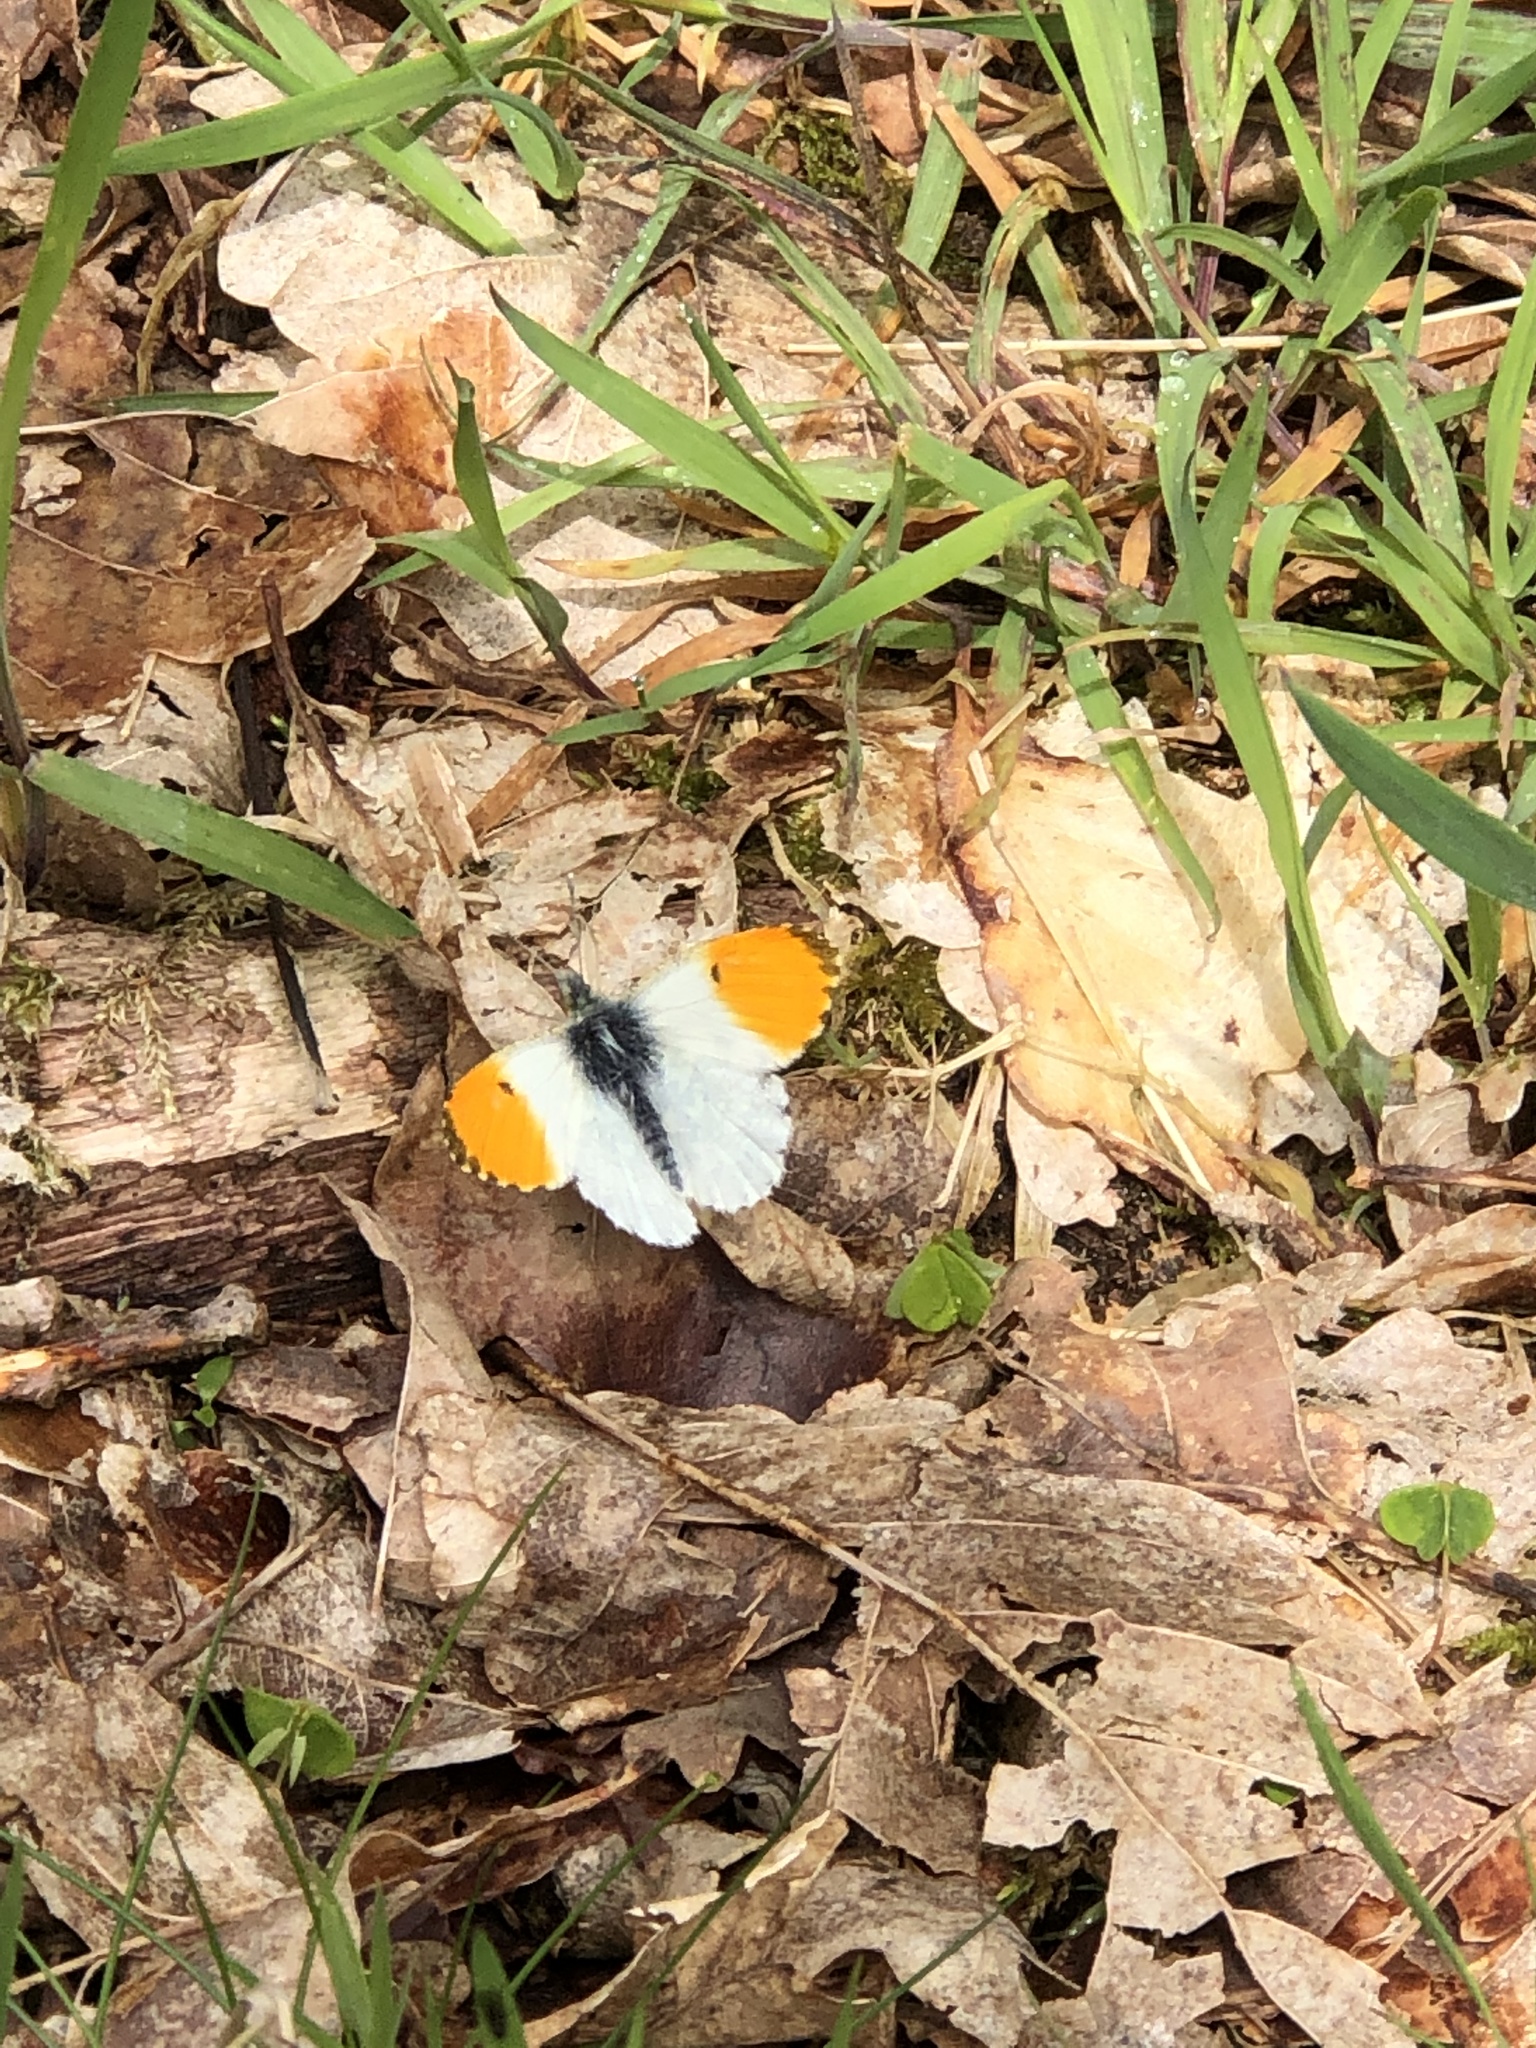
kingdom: Animalia
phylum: Arthropoda
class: Insecta
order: Lepidoptera
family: Pieridae
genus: Anthocharis
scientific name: Anthocharis cardamines
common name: Orange-tip
